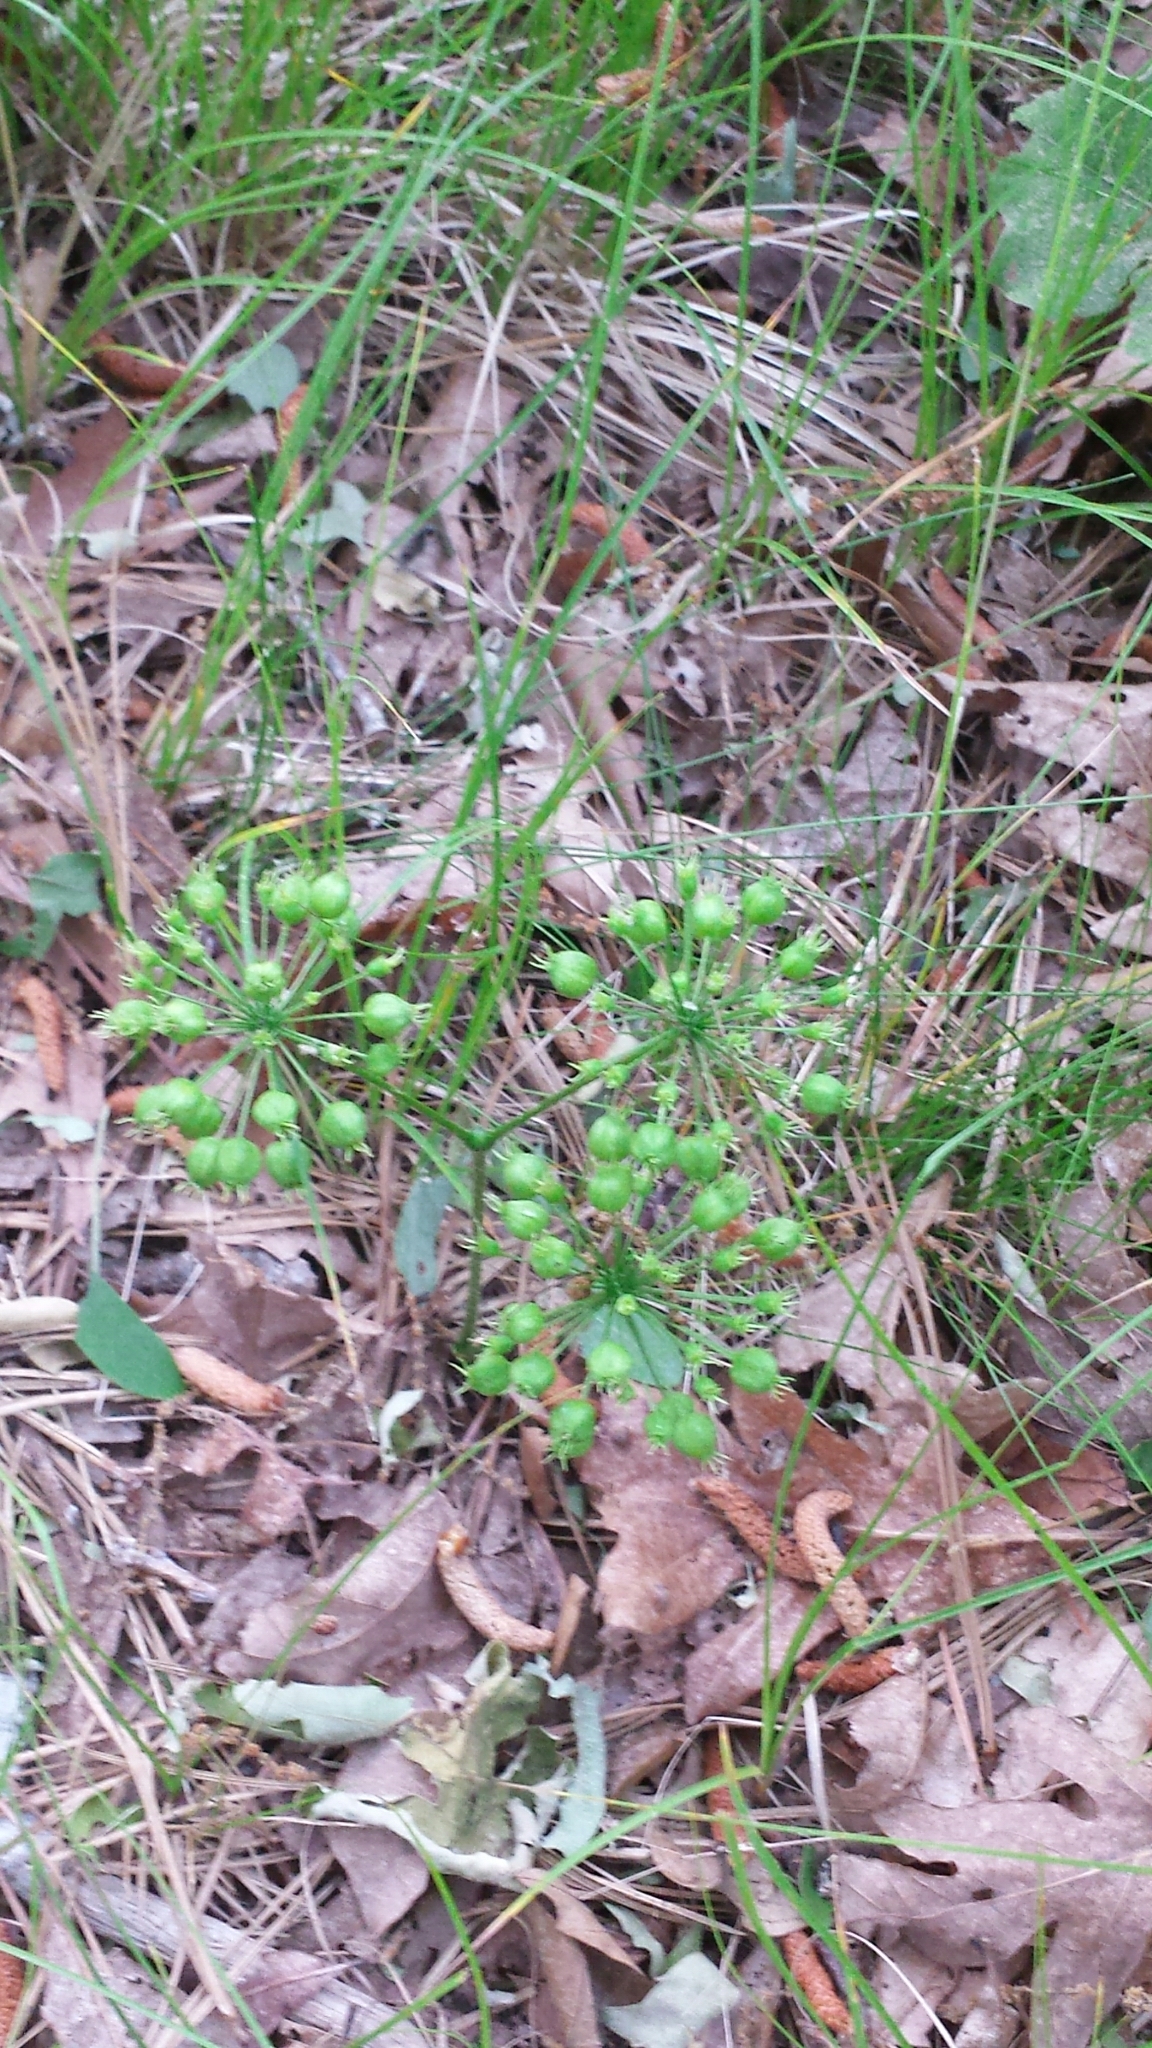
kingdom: Plantae
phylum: Tracheophyta
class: Magnoliopsida
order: Apiales
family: Araliaceae
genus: Aralia
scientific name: Aralia nudicaulis
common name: Wild sarsaparilla
